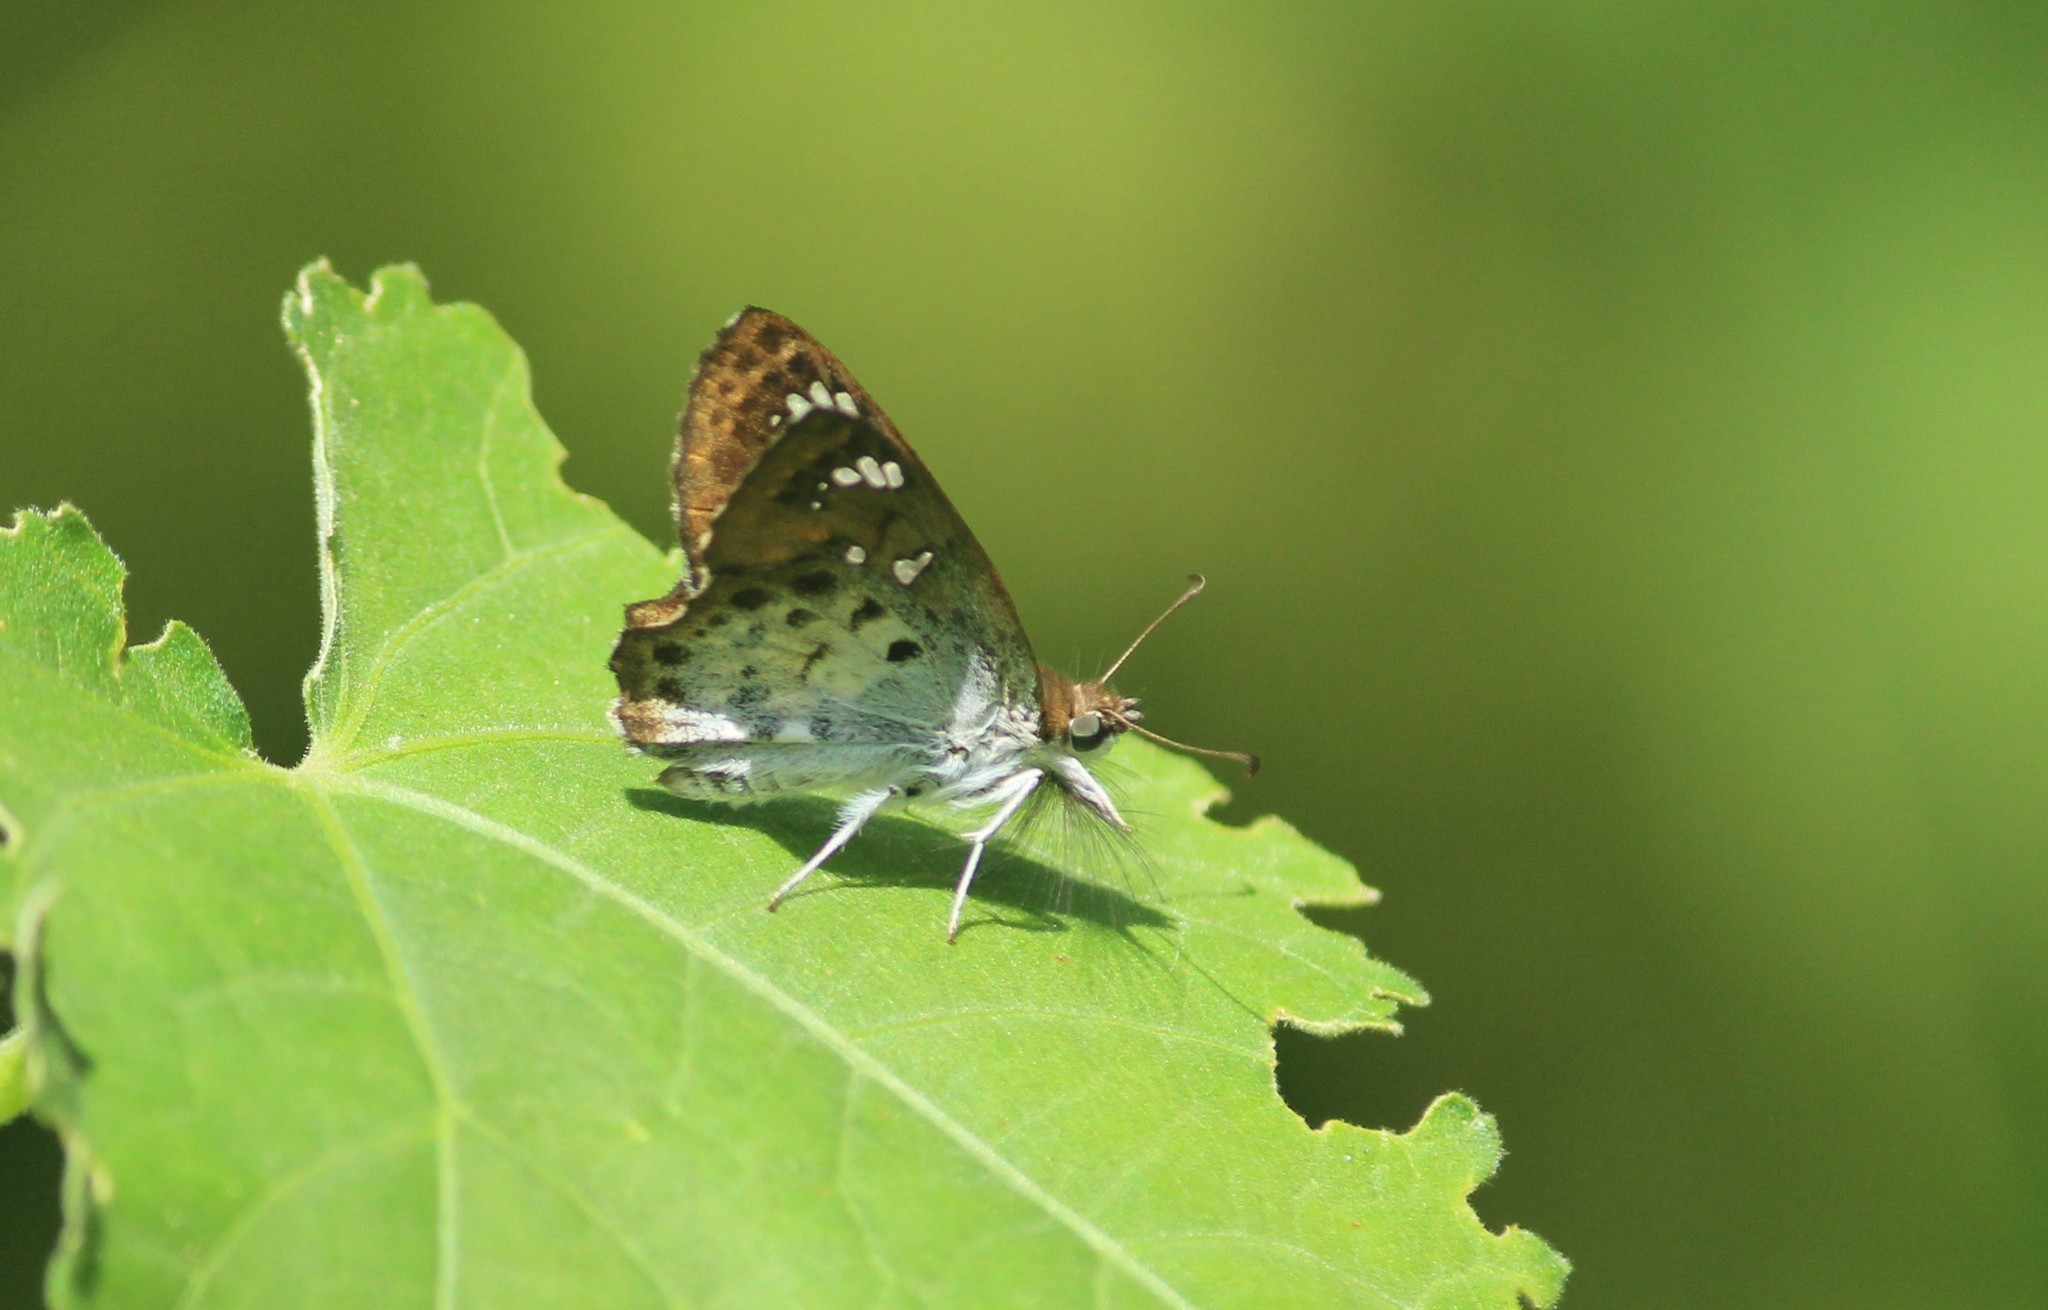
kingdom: Animalia
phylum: Arthropoda
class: Insecta
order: Lepidoptera
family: Hesperiidae
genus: Caprona
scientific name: Caprona ransonnettii
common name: Golden angle
